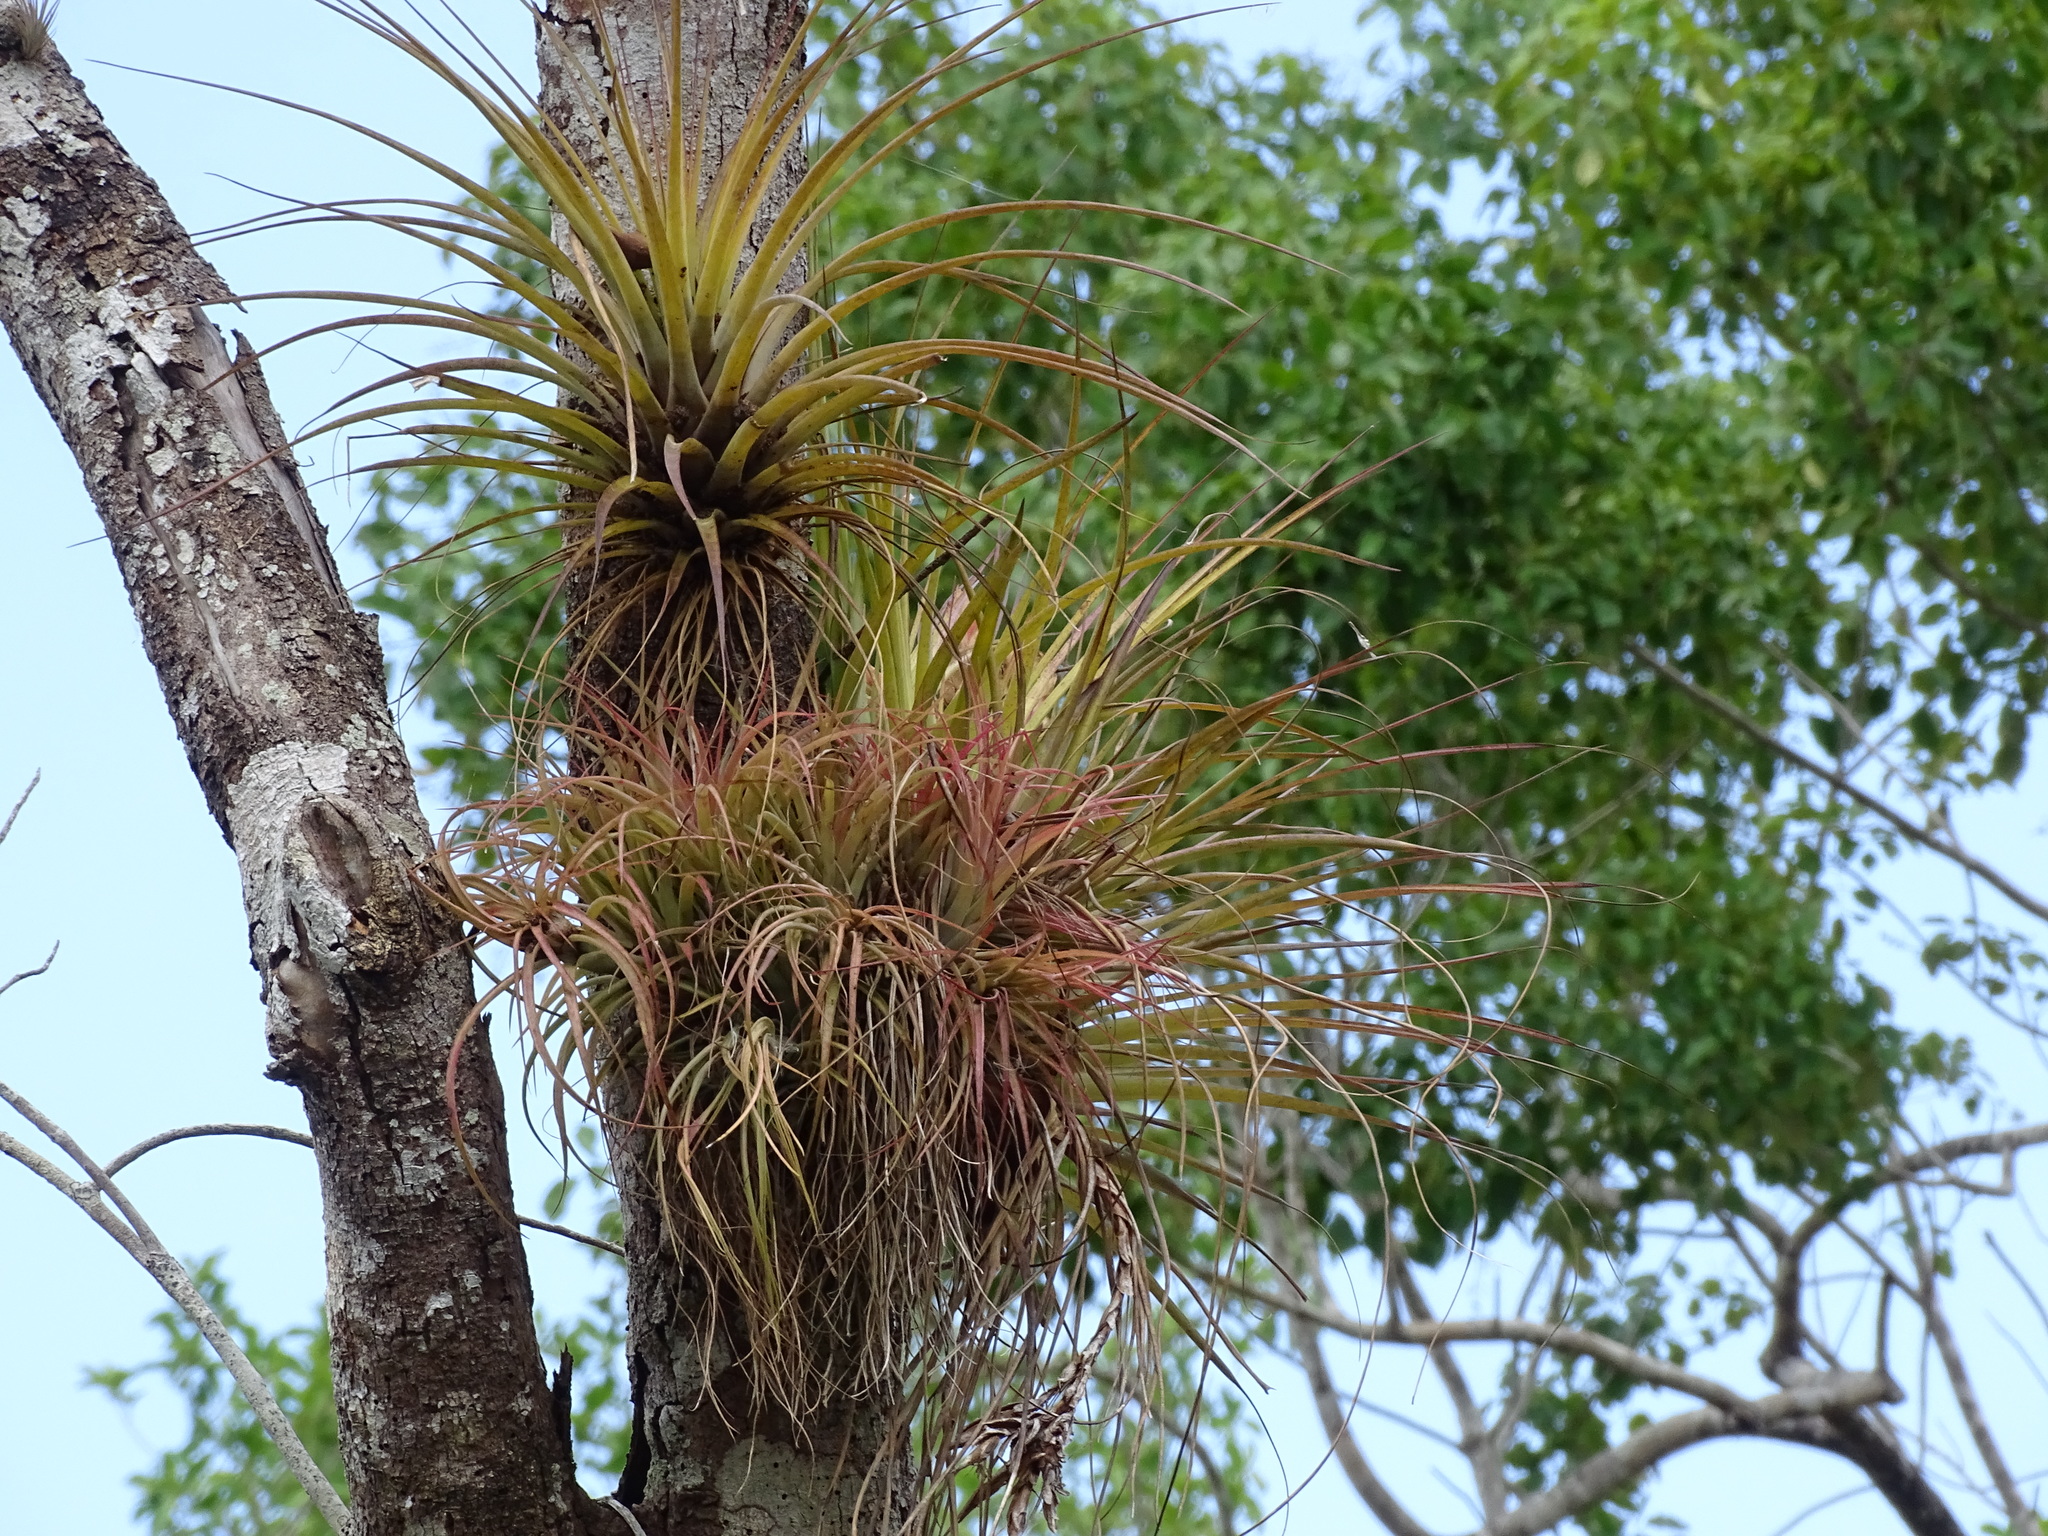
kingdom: Plantae
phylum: Tracheophyta
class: Liliopsida
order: Poales
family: Bromeliaceae
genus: Tillandsia
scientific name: Tillandsia brachycaulos
